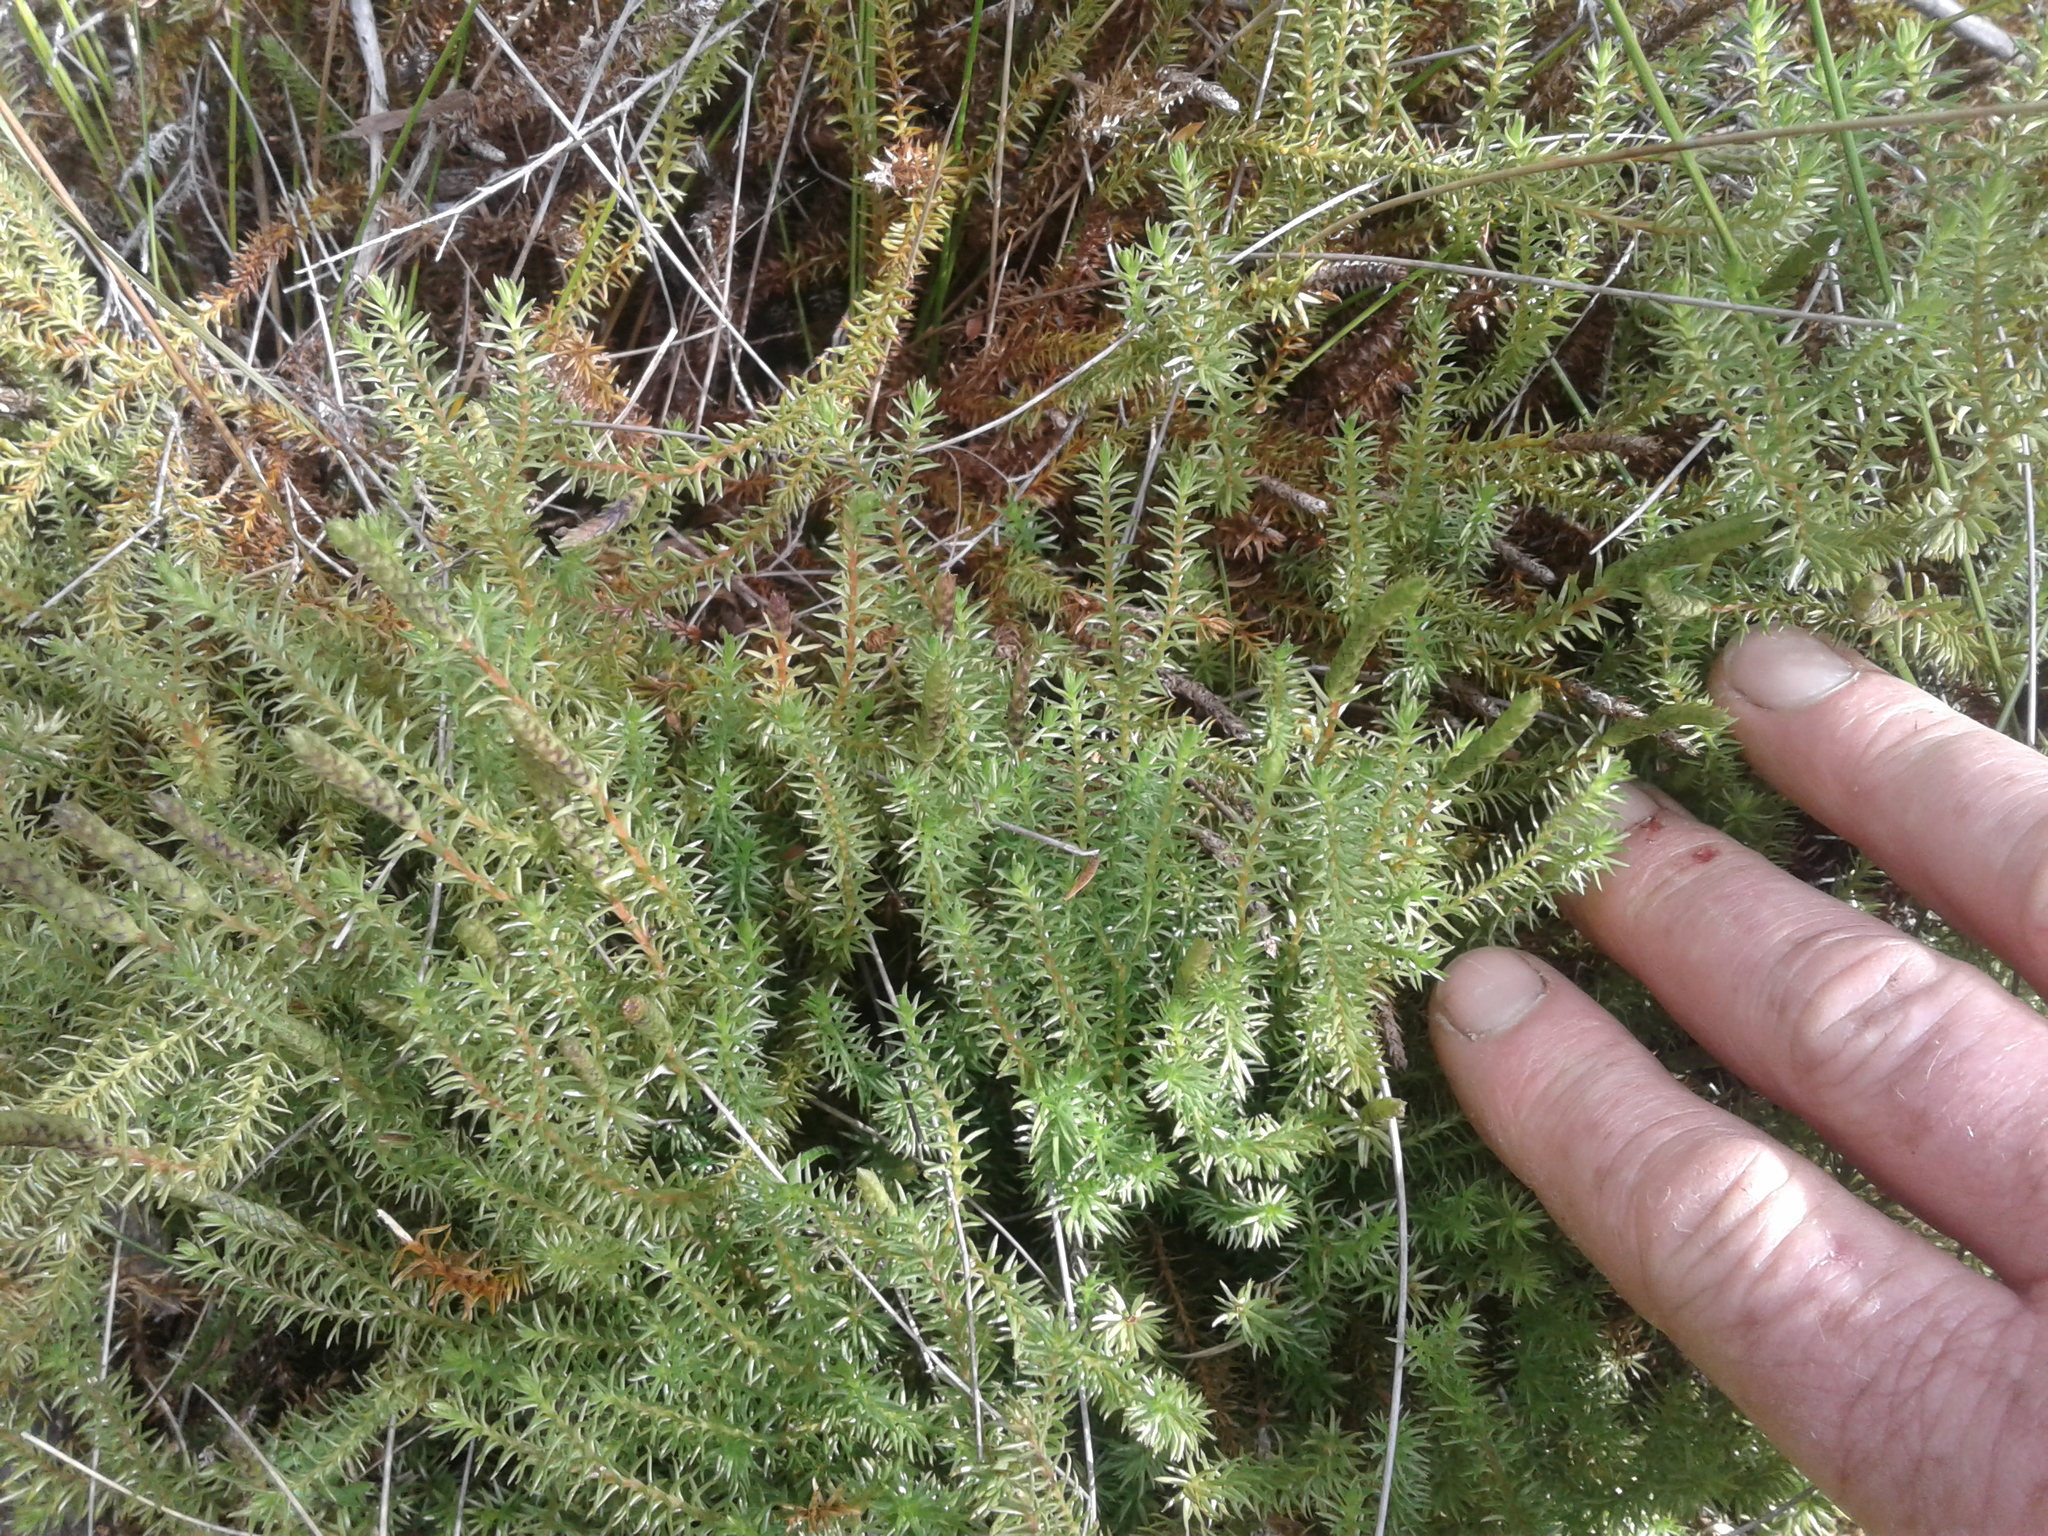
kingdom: Plantae
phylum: Tracheophyta
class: Lycopodiopsida
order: Lycopodiales
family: Lycopodiaceae
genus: Lateristachys
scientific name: Lateristachys lateralis
